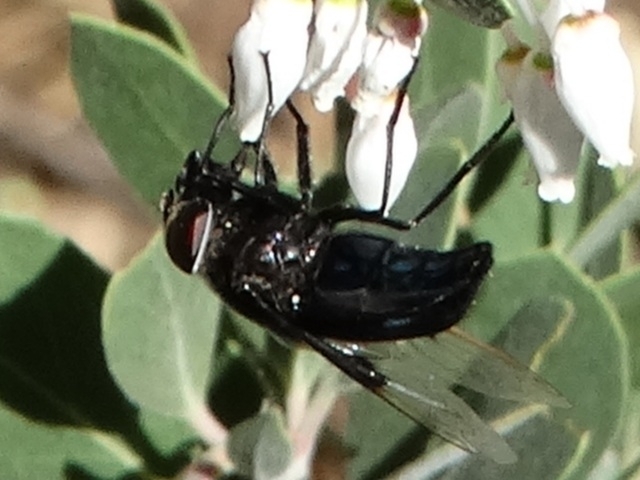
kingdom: Animalia
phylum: Arthropoda
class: Insecta
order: Diptera
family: Syrphidae
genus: Copestylum
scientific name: Copestylum
